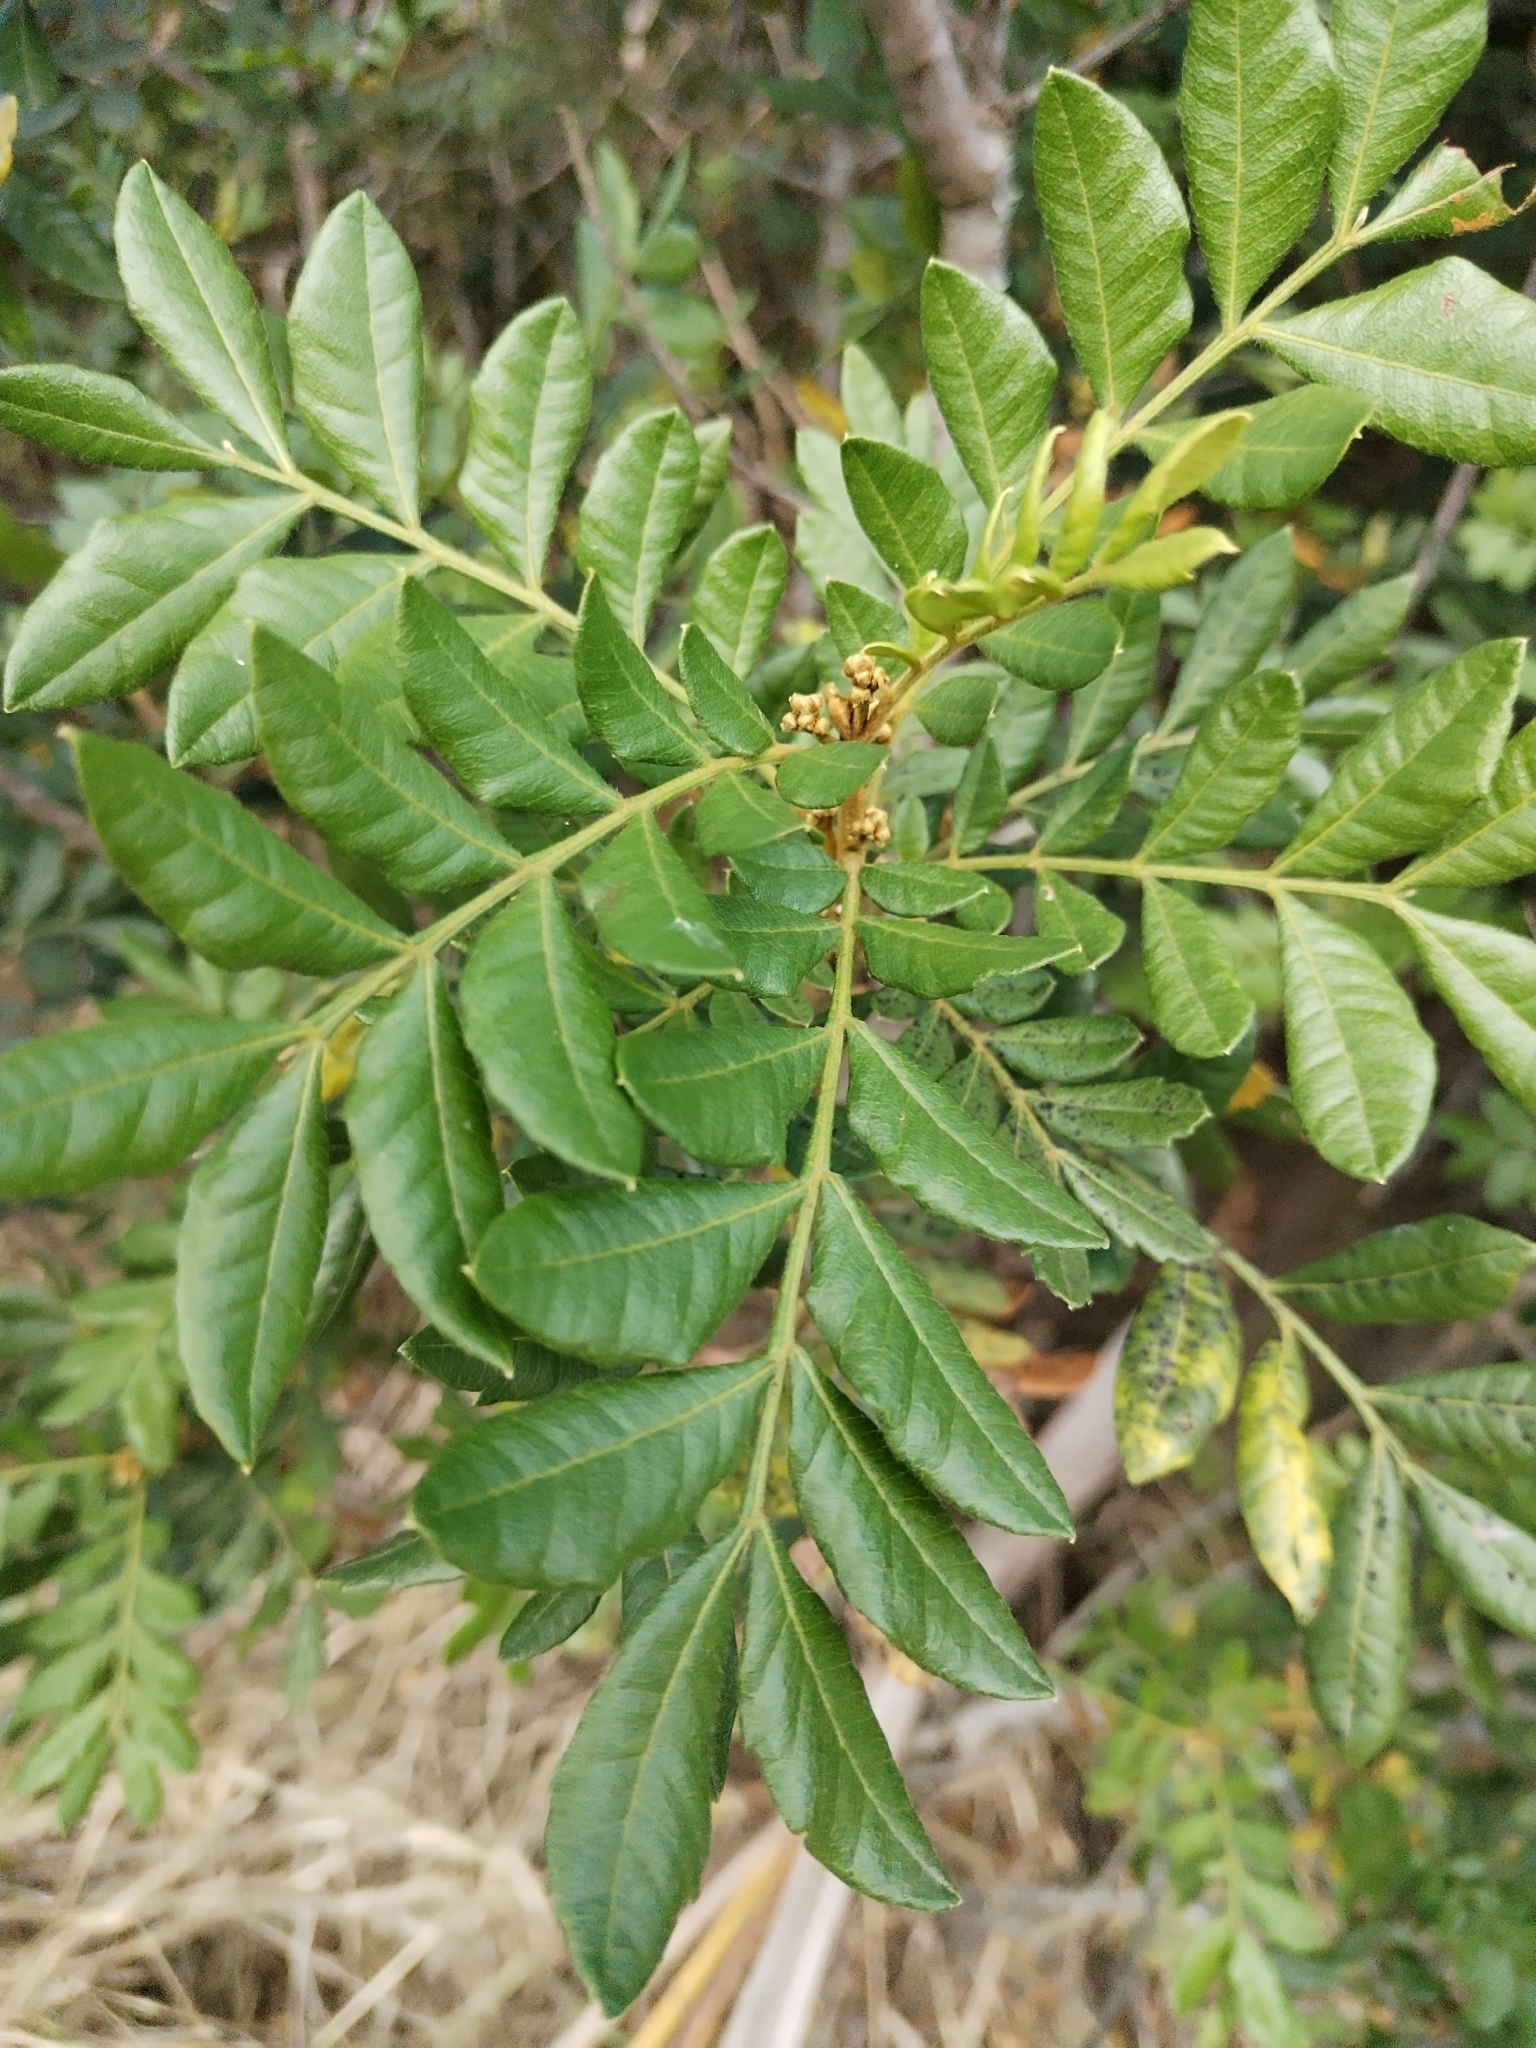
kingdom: Plantae
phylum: Tracheophyta
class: Magnoliopsida
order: Sapindales
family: Sapindaceae
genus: Hippobromus
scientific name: Hippobromus pauciflorus
